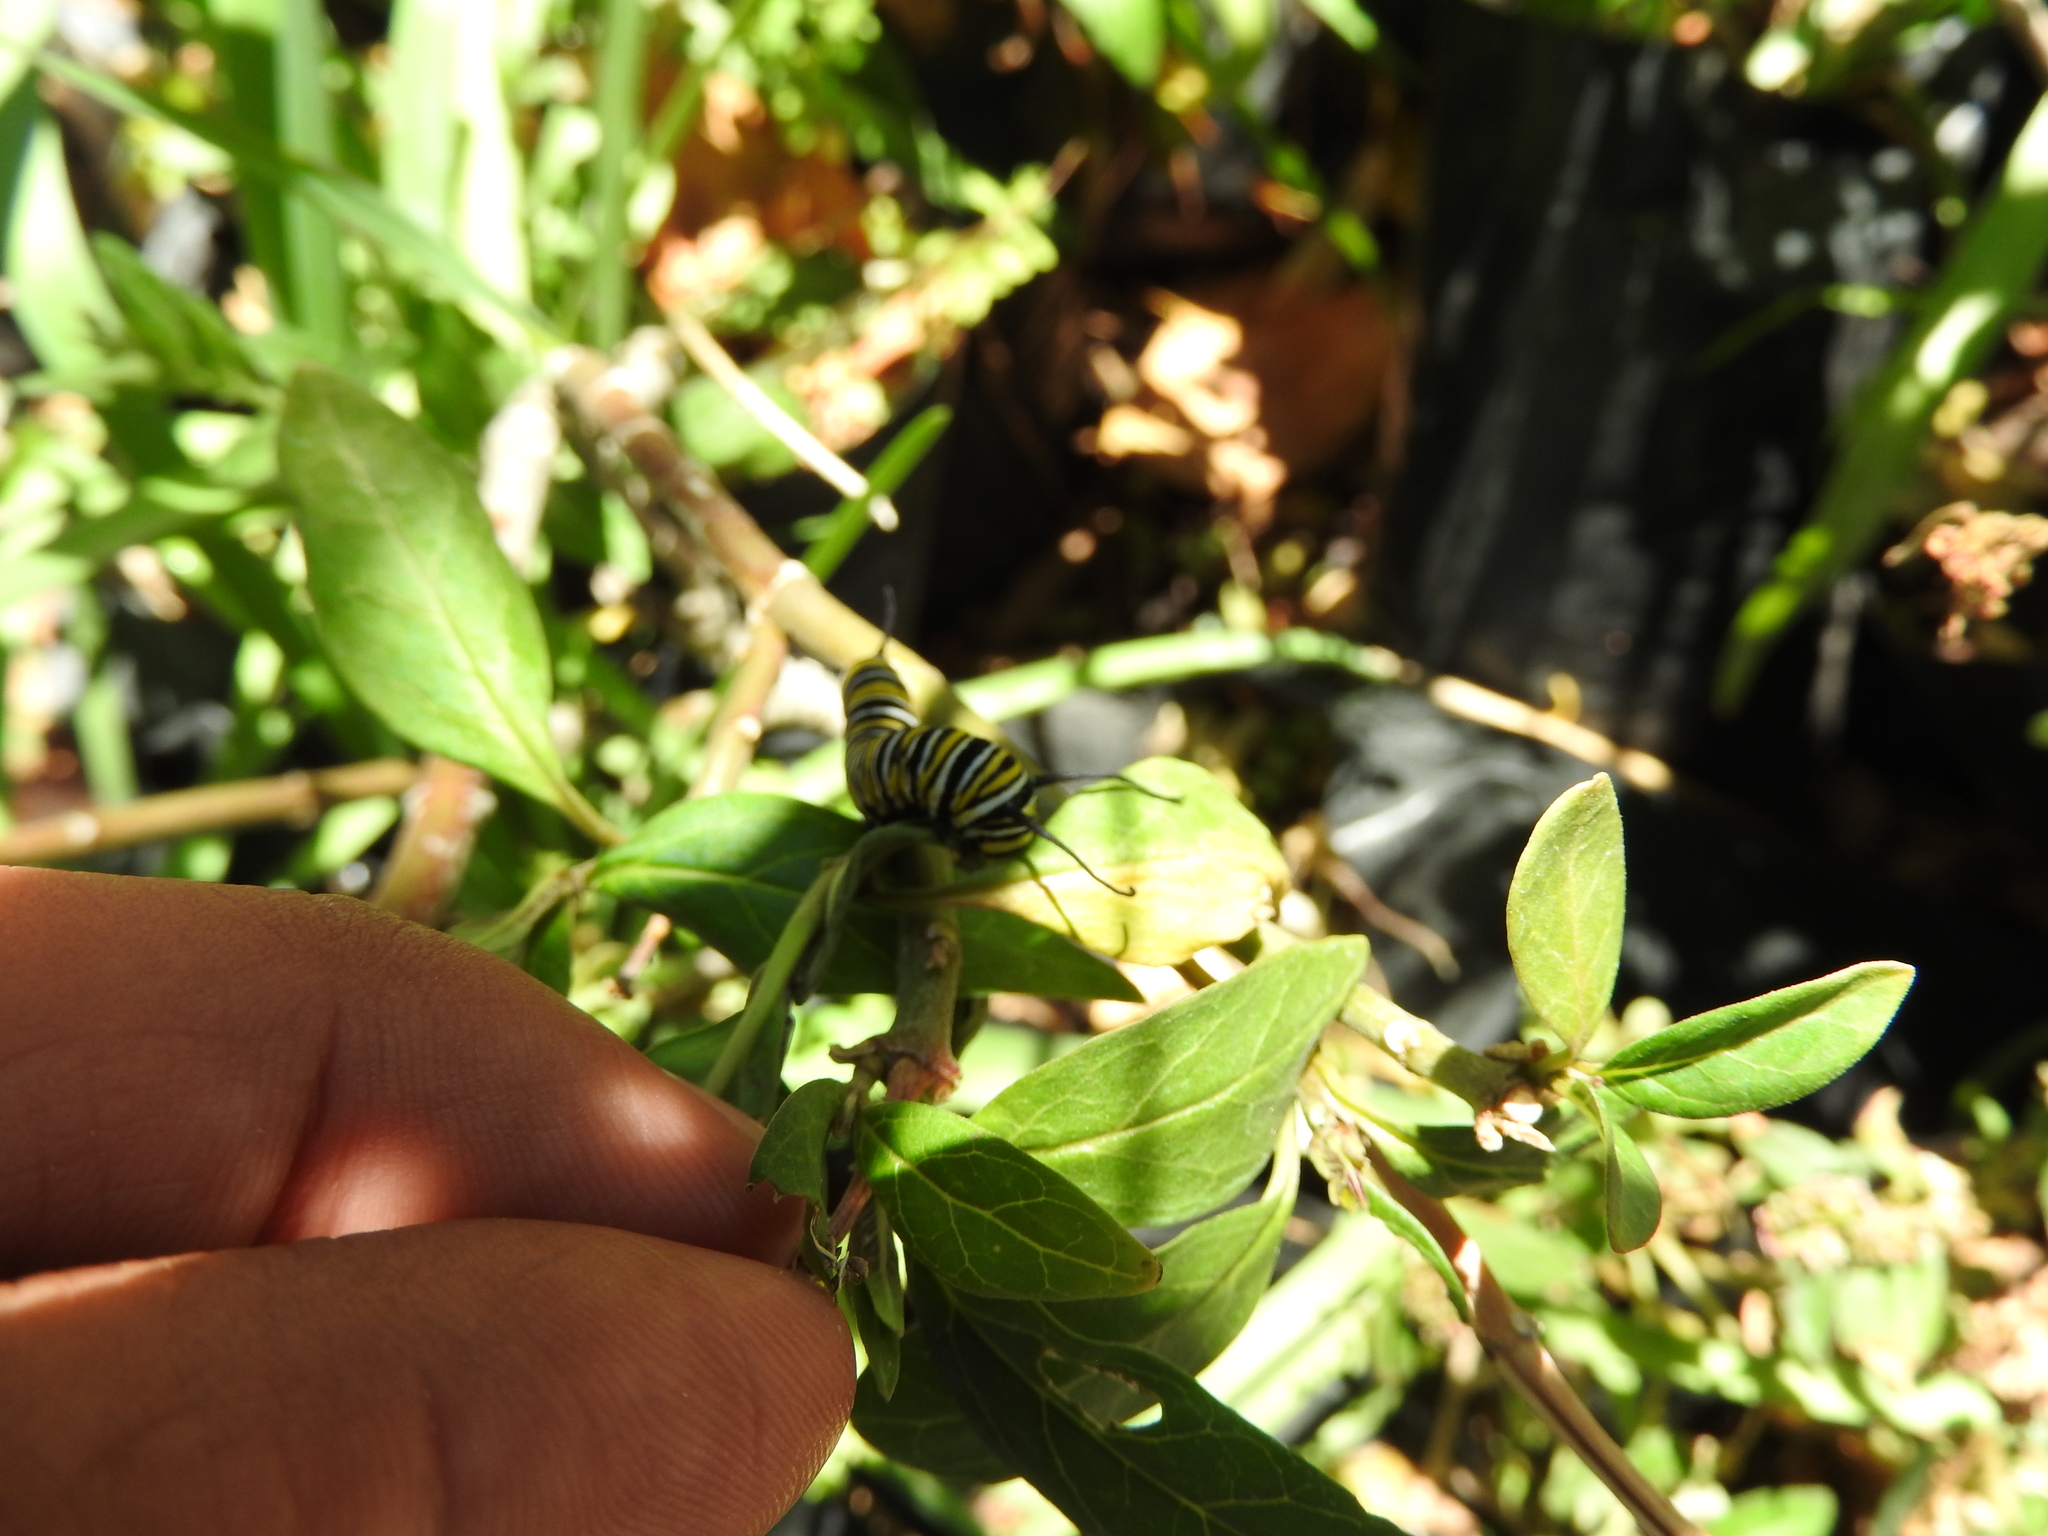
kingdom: Animalia
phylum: Arthropoda
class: Insecta
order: Lepidoptera
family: Nymphalidae
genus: Danaus
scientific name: Danaus plexippus
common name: Monarch
